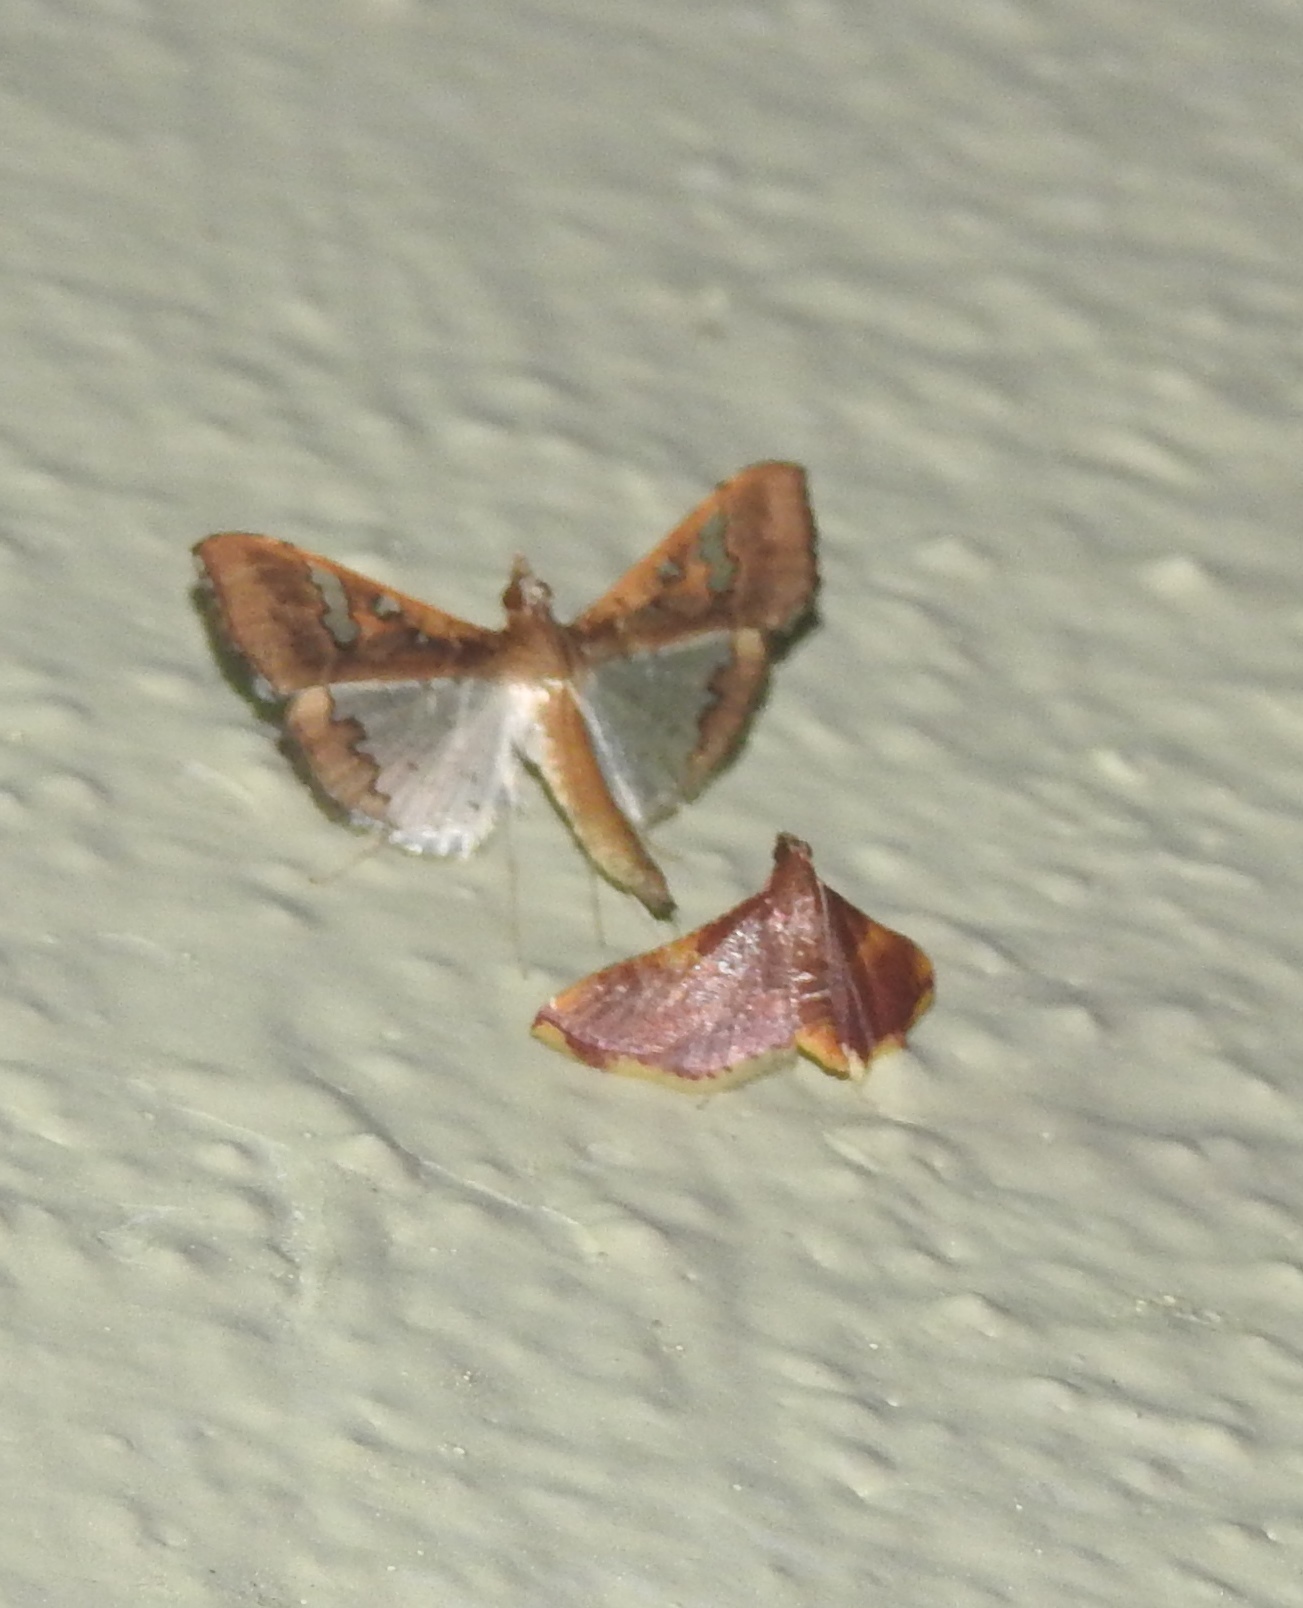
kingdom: Animalia
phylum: Arthropoda
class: Insecta
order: Lepidoptera
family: Crambidae
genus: Maruca
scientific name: Maruca vitrata
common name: Maruca pod borer
